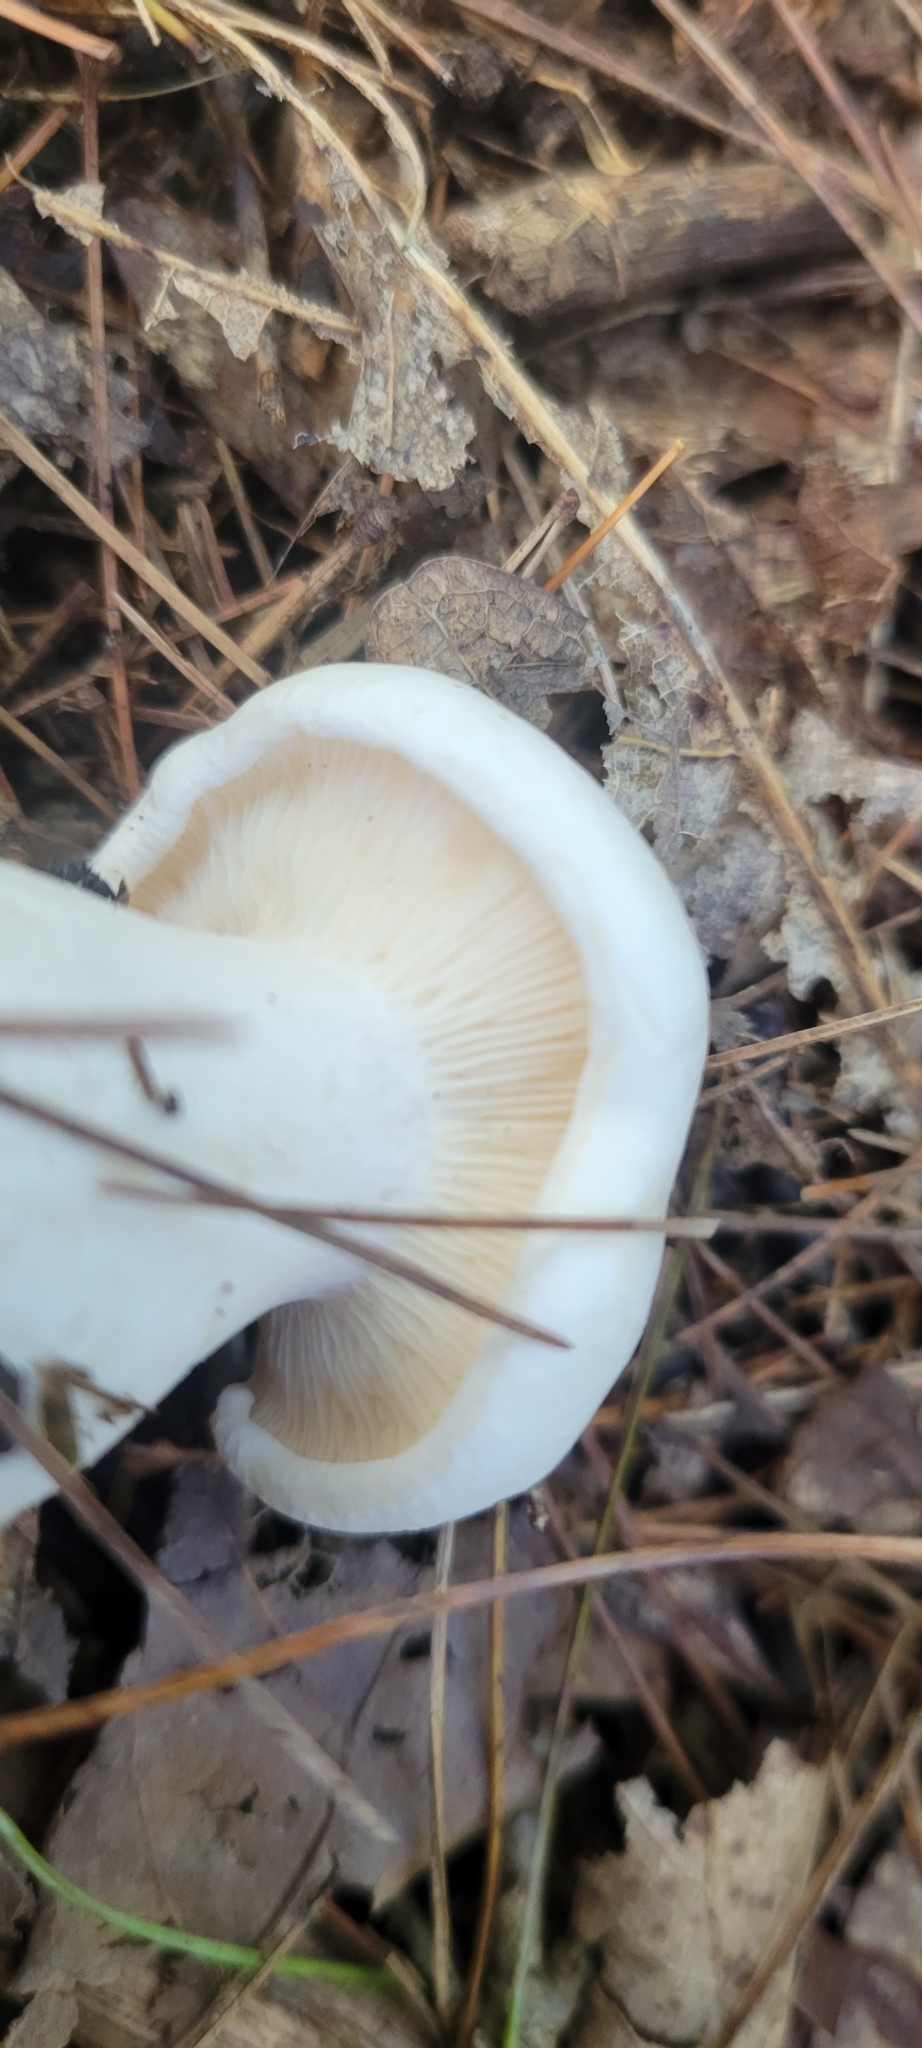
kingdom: Fungi
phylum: Basidiomycota
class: Agaricomycetes
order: Russulales
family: Russulaceae
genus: Lactifluus
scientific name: Lactifluus piperatus
